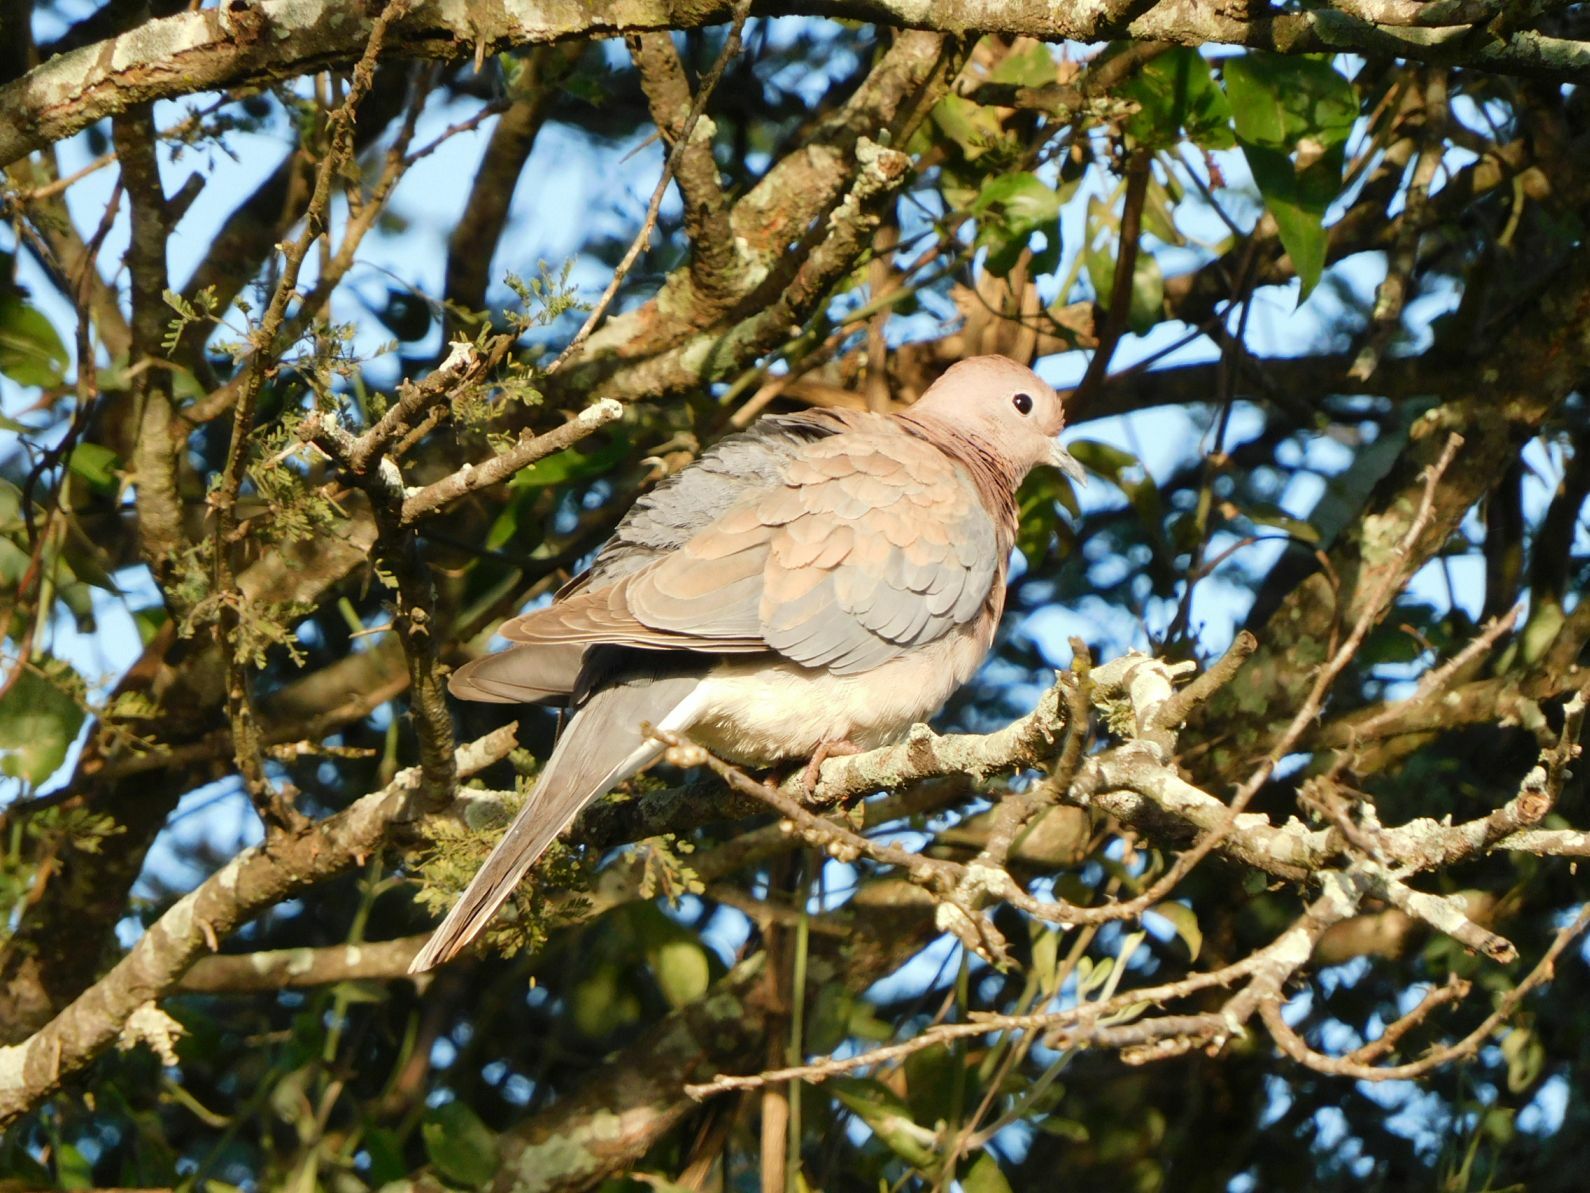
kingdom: Animalia
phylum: Chordata
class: Aves
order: Columbiformes
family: Columbidae
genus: Spilopelia
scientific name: Spilopelia senegalensis
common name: Laughing dove
